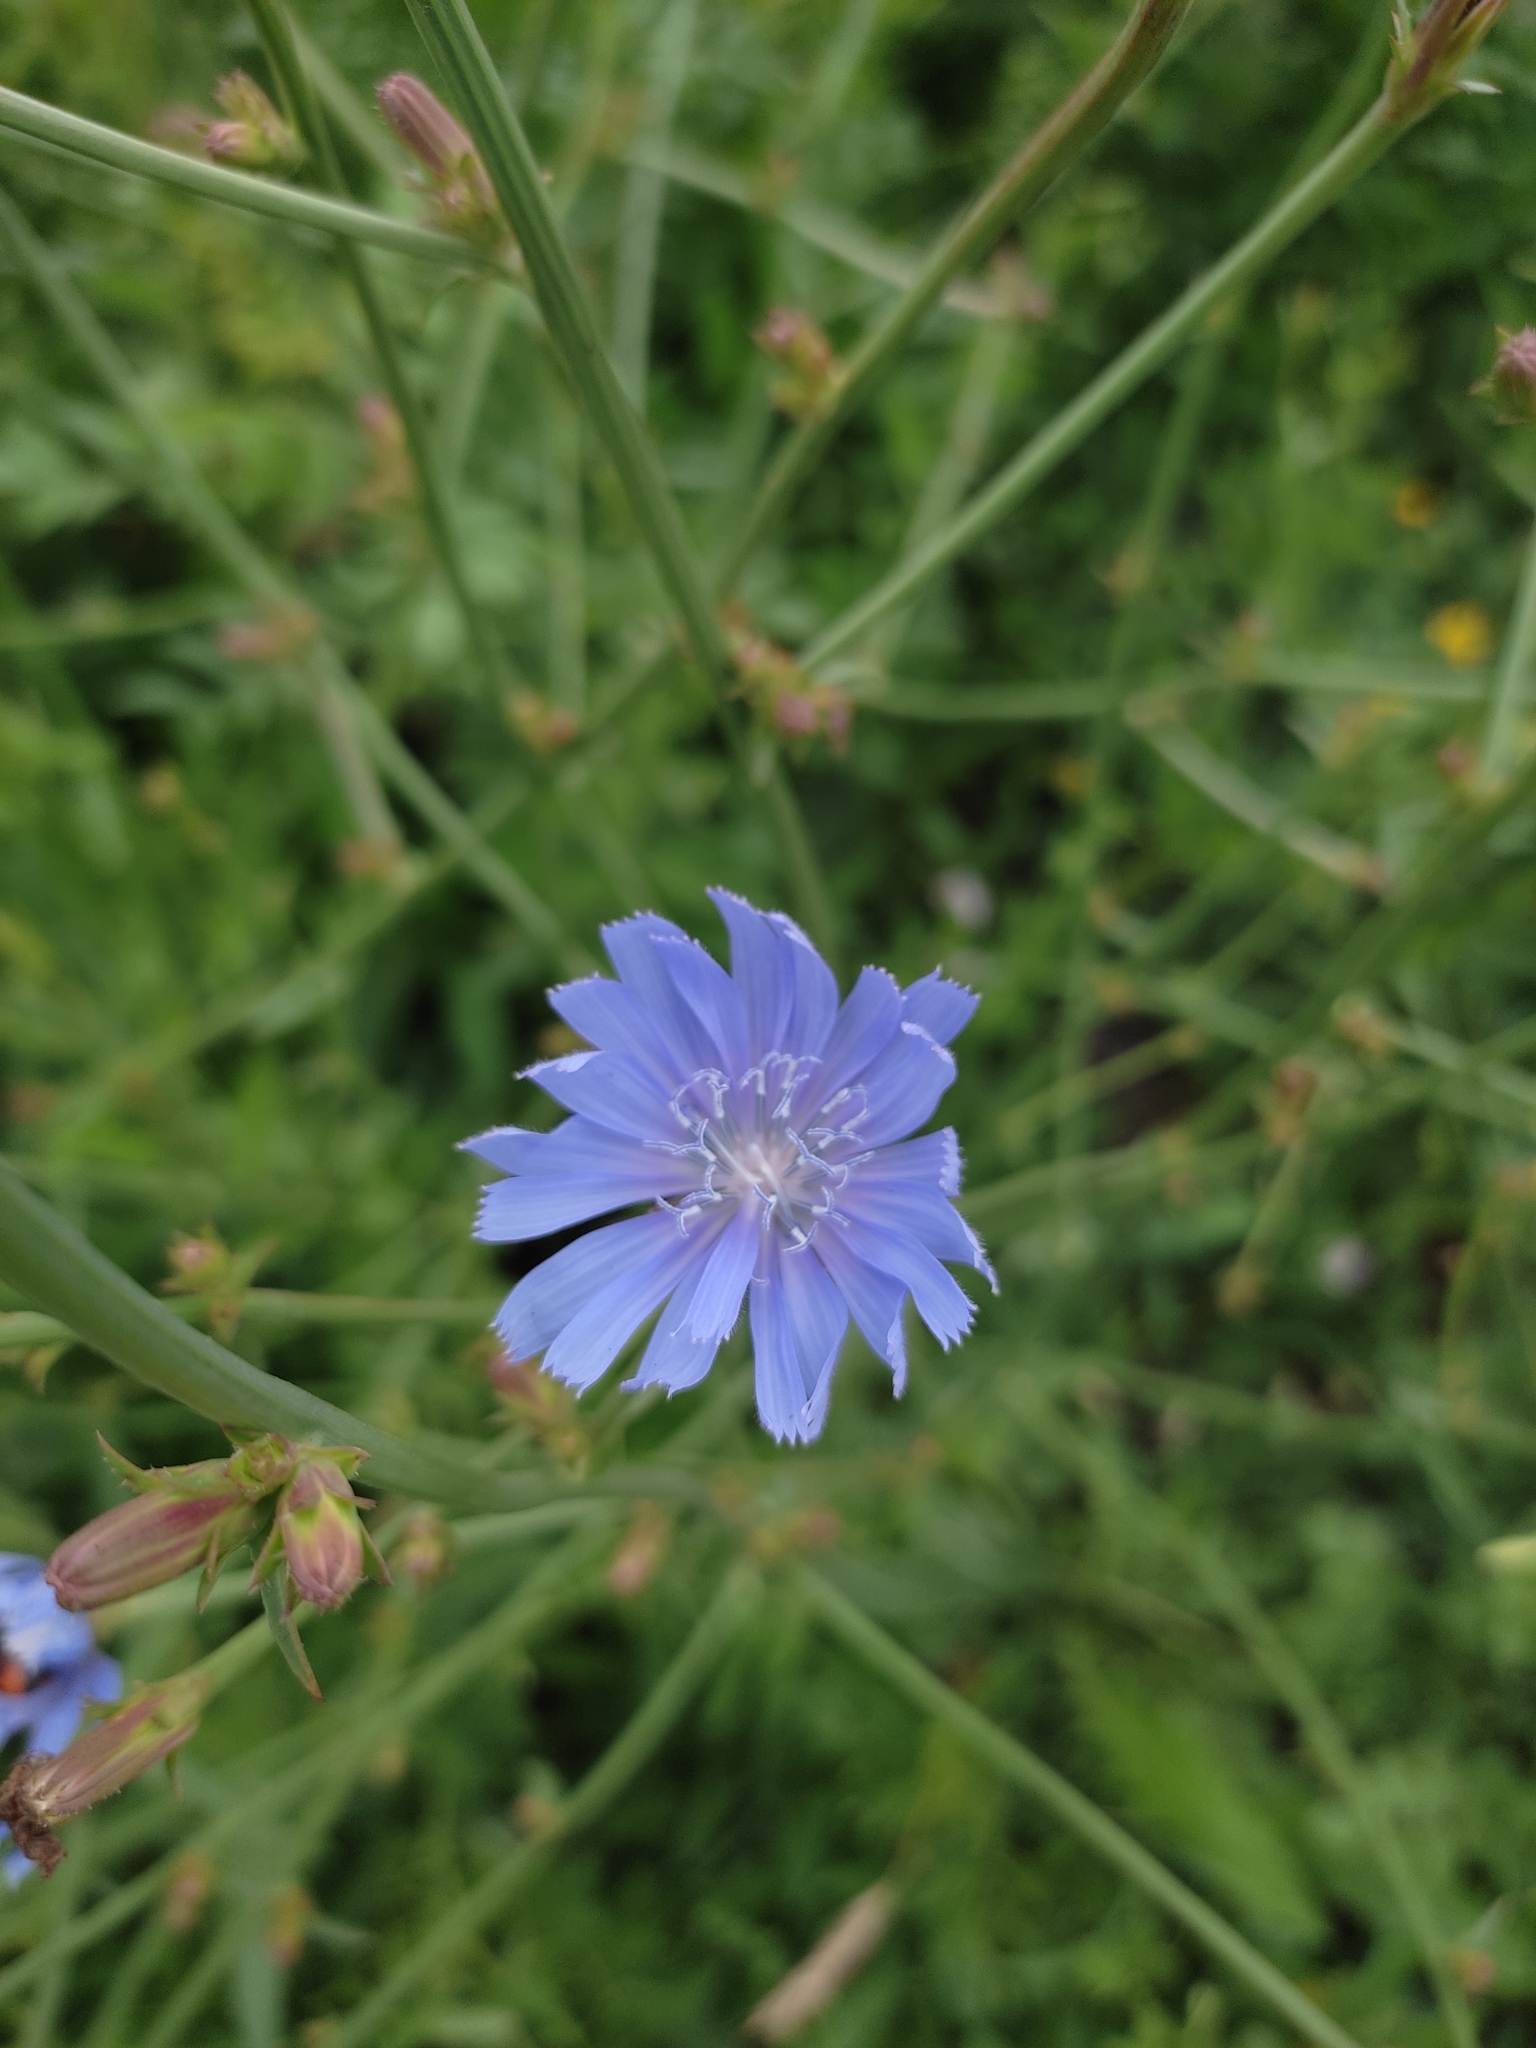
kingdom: Plantae
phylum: Tracheophyta
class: Magnoliopsida
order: Asterales
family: Asteraceae
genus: Cichorium
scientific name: Cichorium intybus
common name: Chicory
